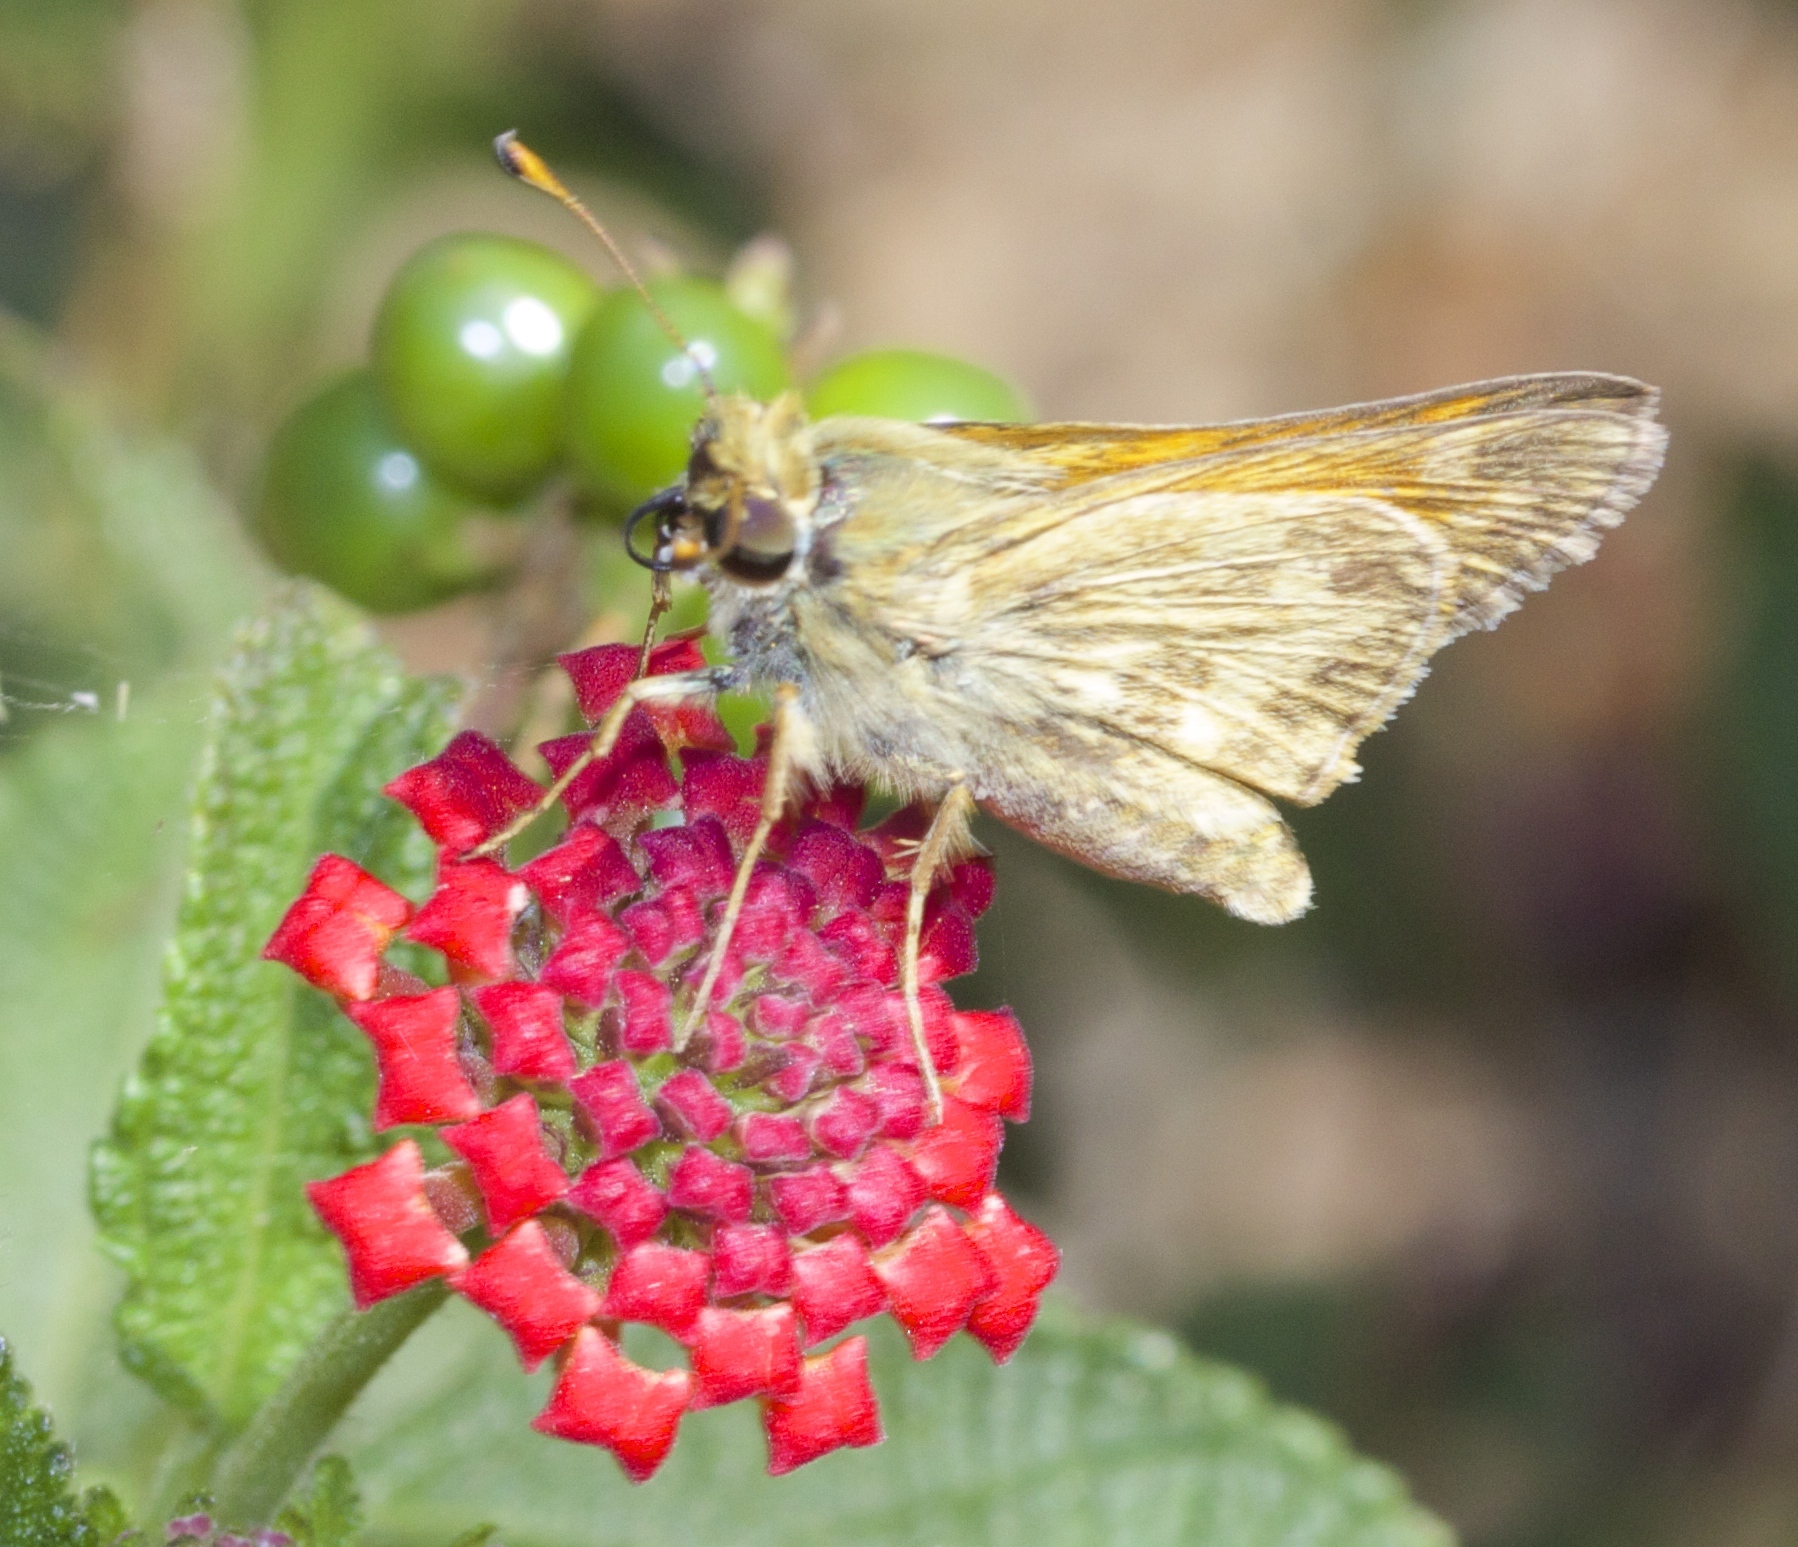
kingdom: Animalia
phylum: Arthropoda
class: Insecta
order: Lepidoptera
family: Hesperiidae
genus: Atalopedes
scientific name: Atalopedes campestris
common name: Sachem
